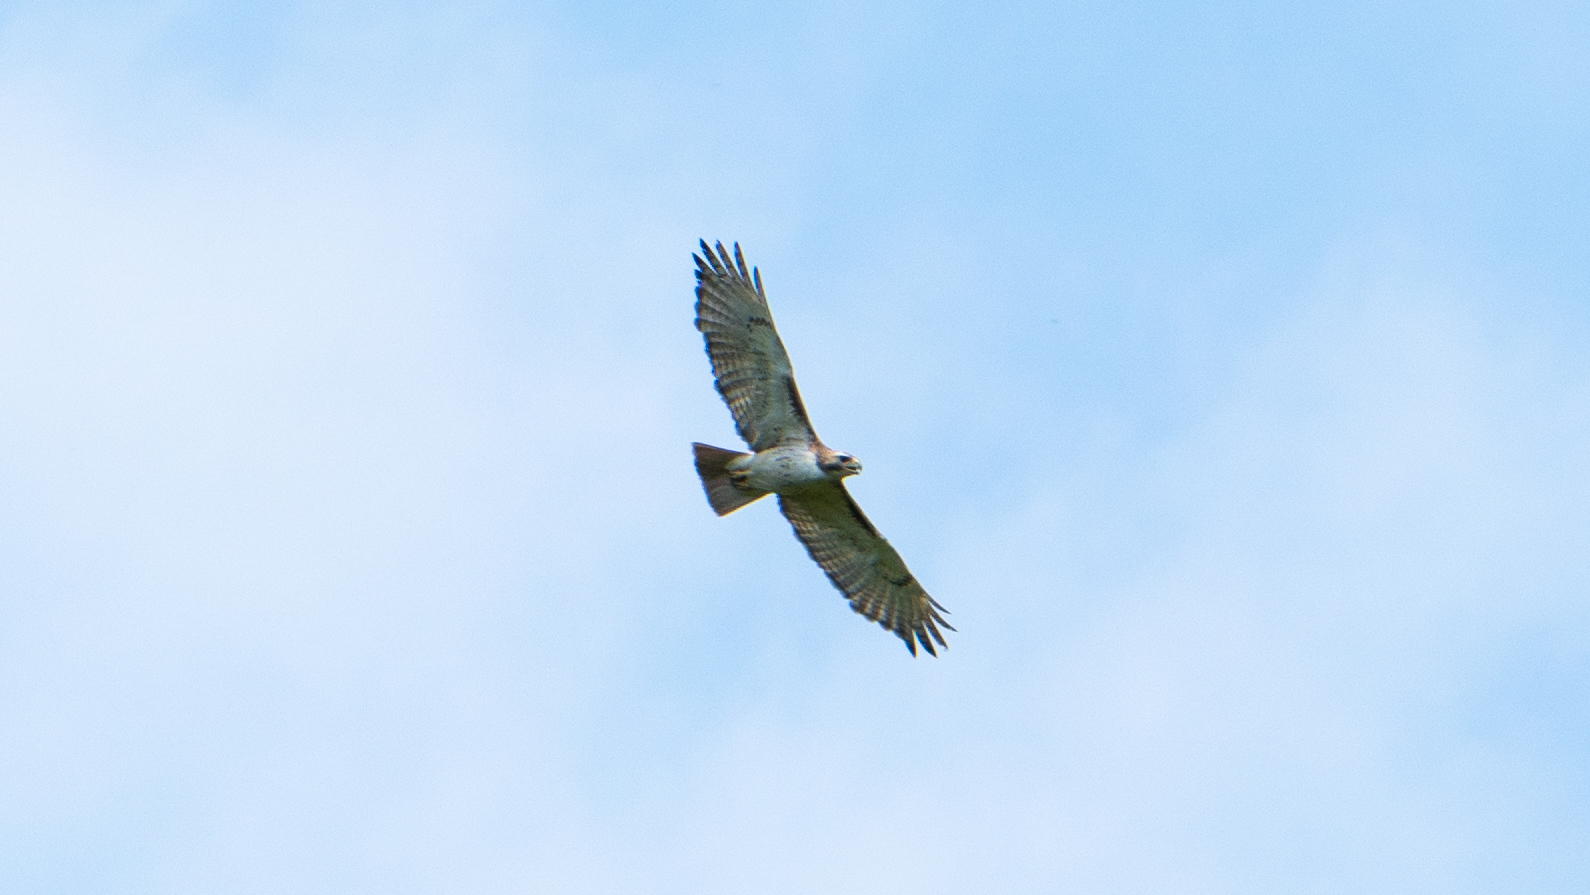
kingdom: Animalia
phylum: Chordata
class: Aves
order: Accipitriformes
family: Accipitridae
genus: Buteo
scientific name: Buteo jamaicensis
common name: Red-tailed hawk
